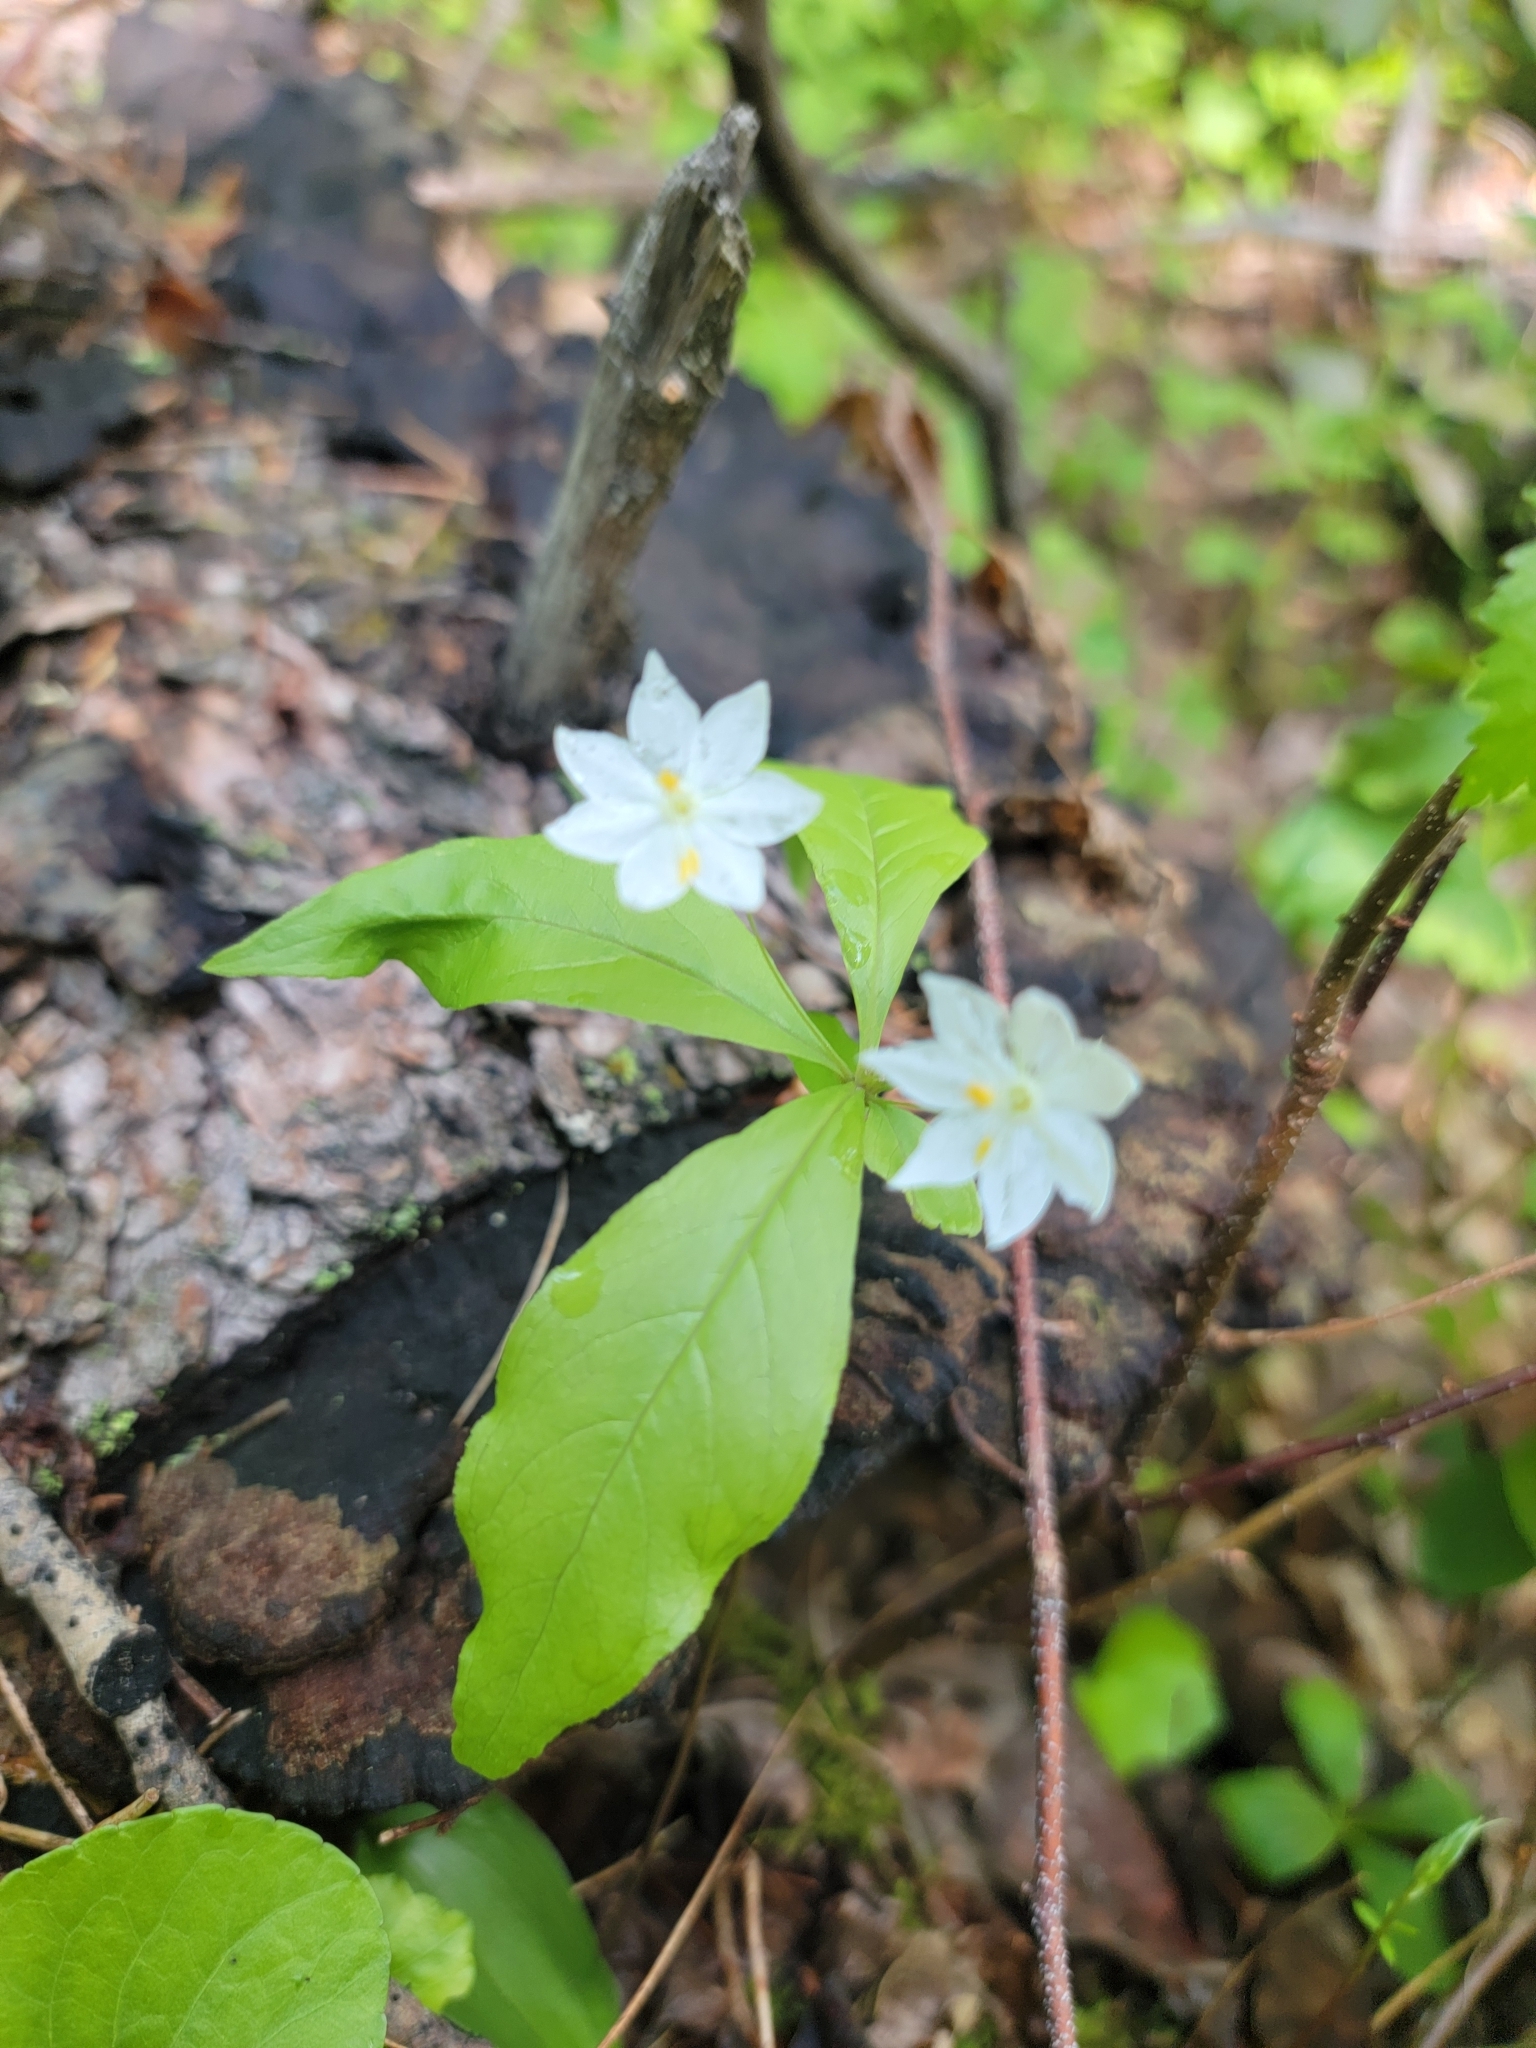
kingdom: Plantae
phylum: Tracheophyta
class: Magnoliopsida
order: Ericales
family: Primulaceae
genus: Lysimachia
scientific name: Lysimachia borealis
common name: American starflower
